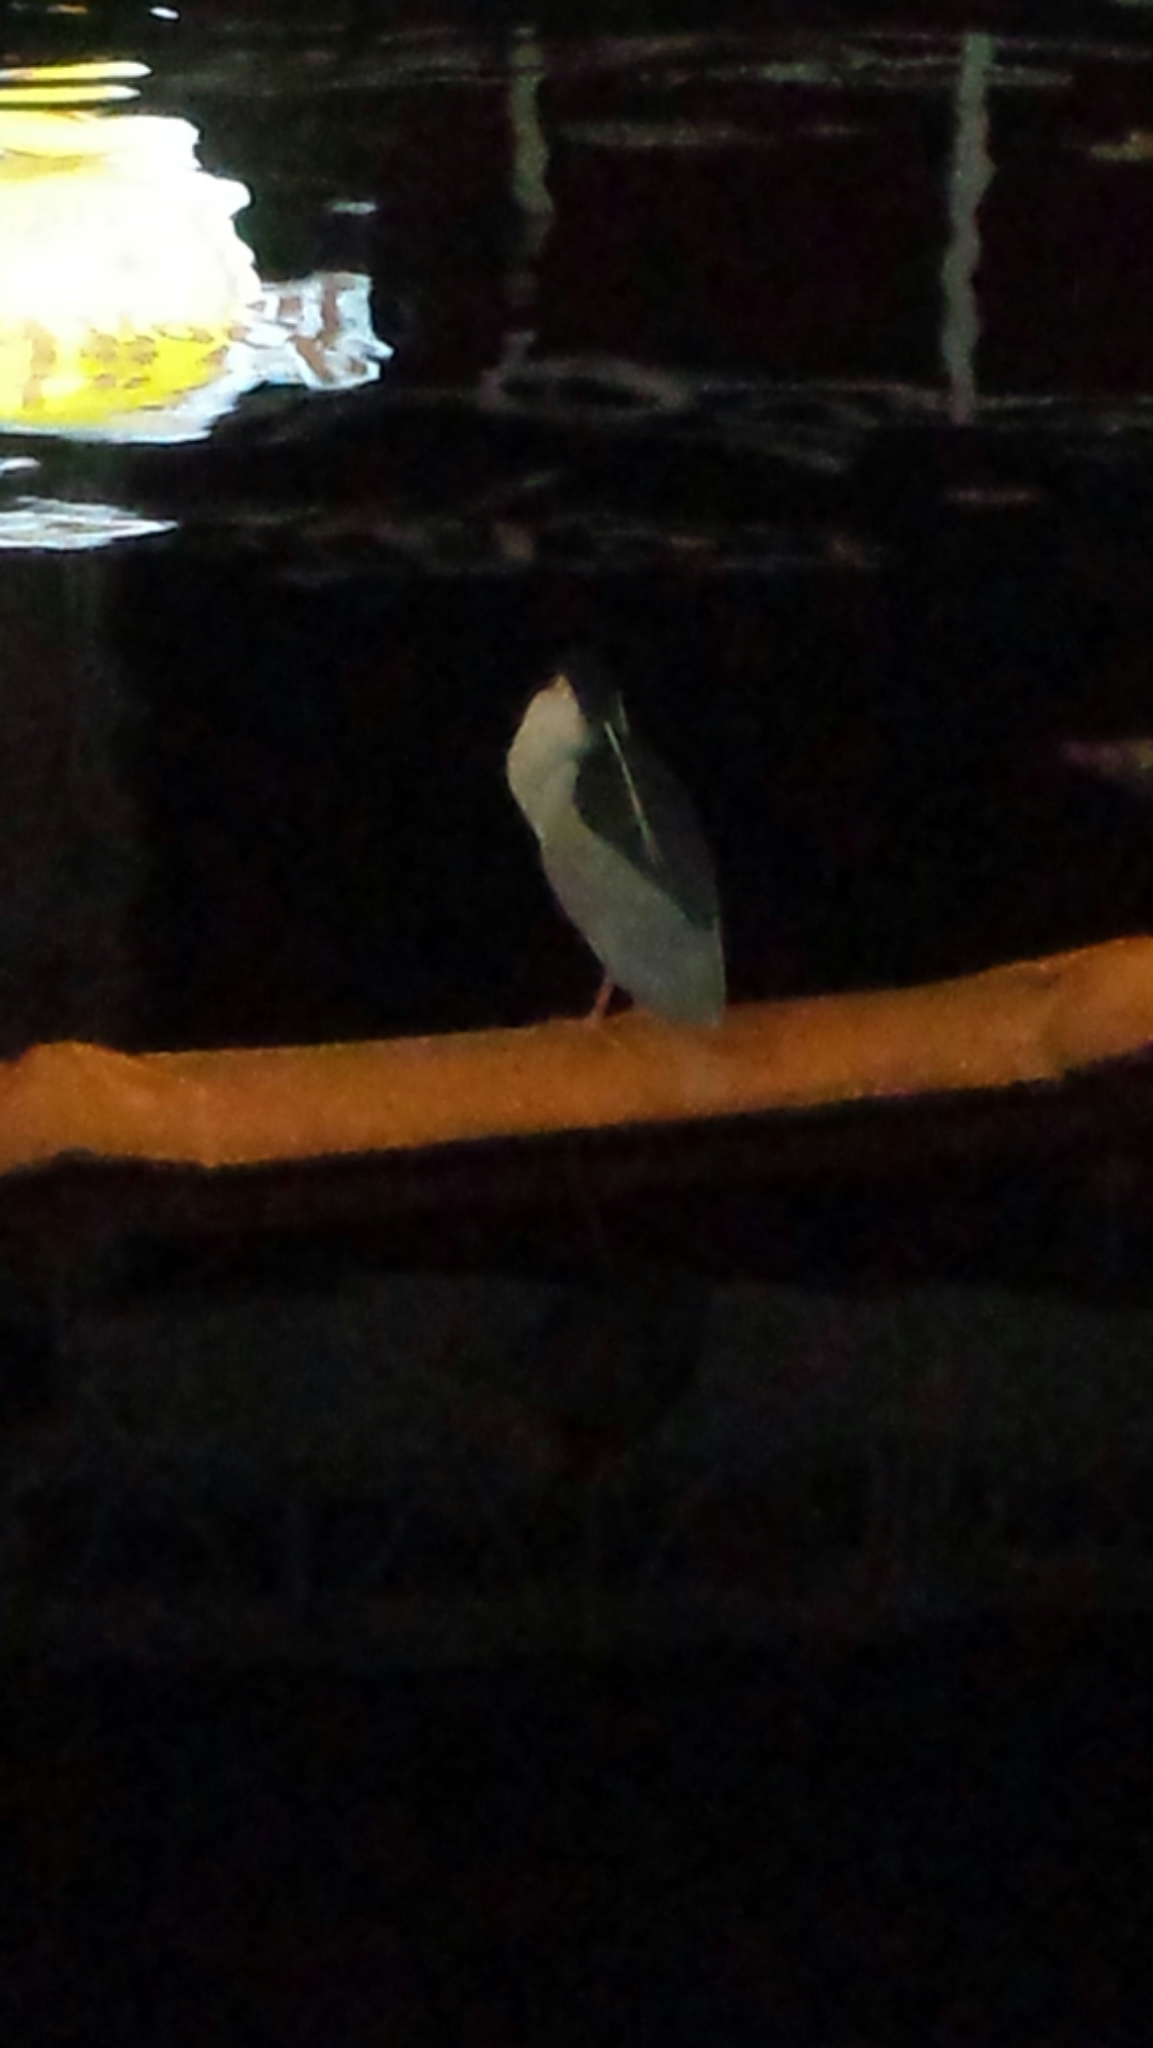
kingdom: Animalia
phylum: Chordata
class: Aves
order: Pelecaniformes
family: Ardeidae
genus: Nycticorax
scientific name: Nycticorax nycticorax
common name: Black-crowned night heron
